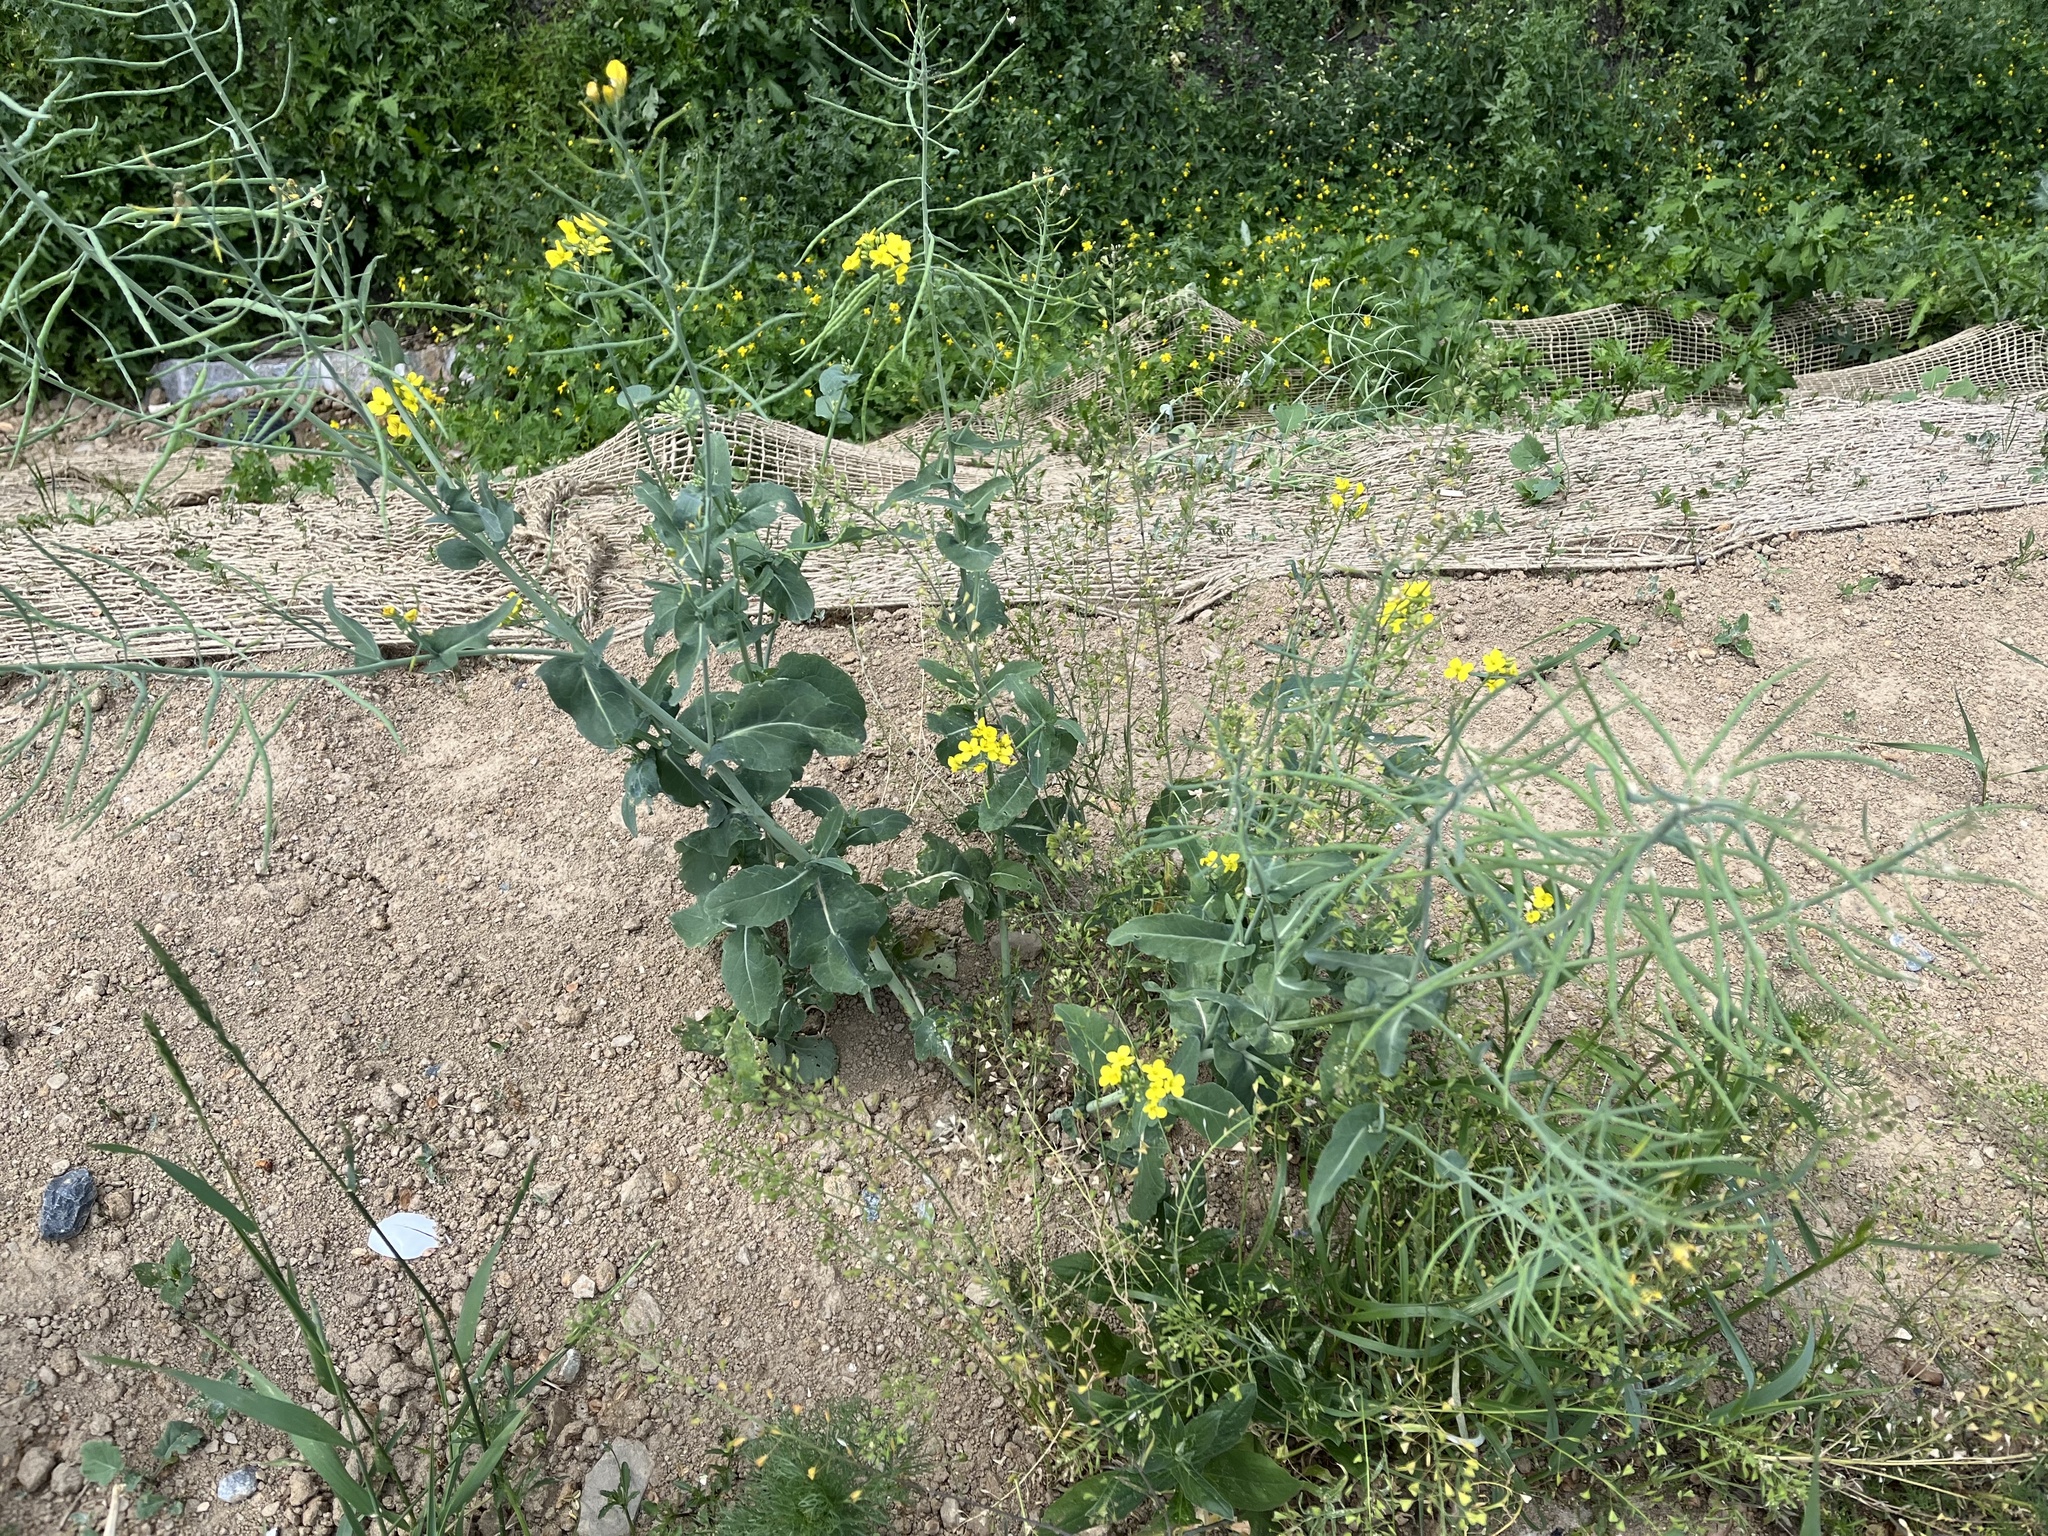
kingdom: Plantae
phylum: Tracheophyta
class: Magnoliopsida
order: Brassicales
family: Brassicaceae
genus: Brassica
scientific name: Brassica napus
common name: Rape
